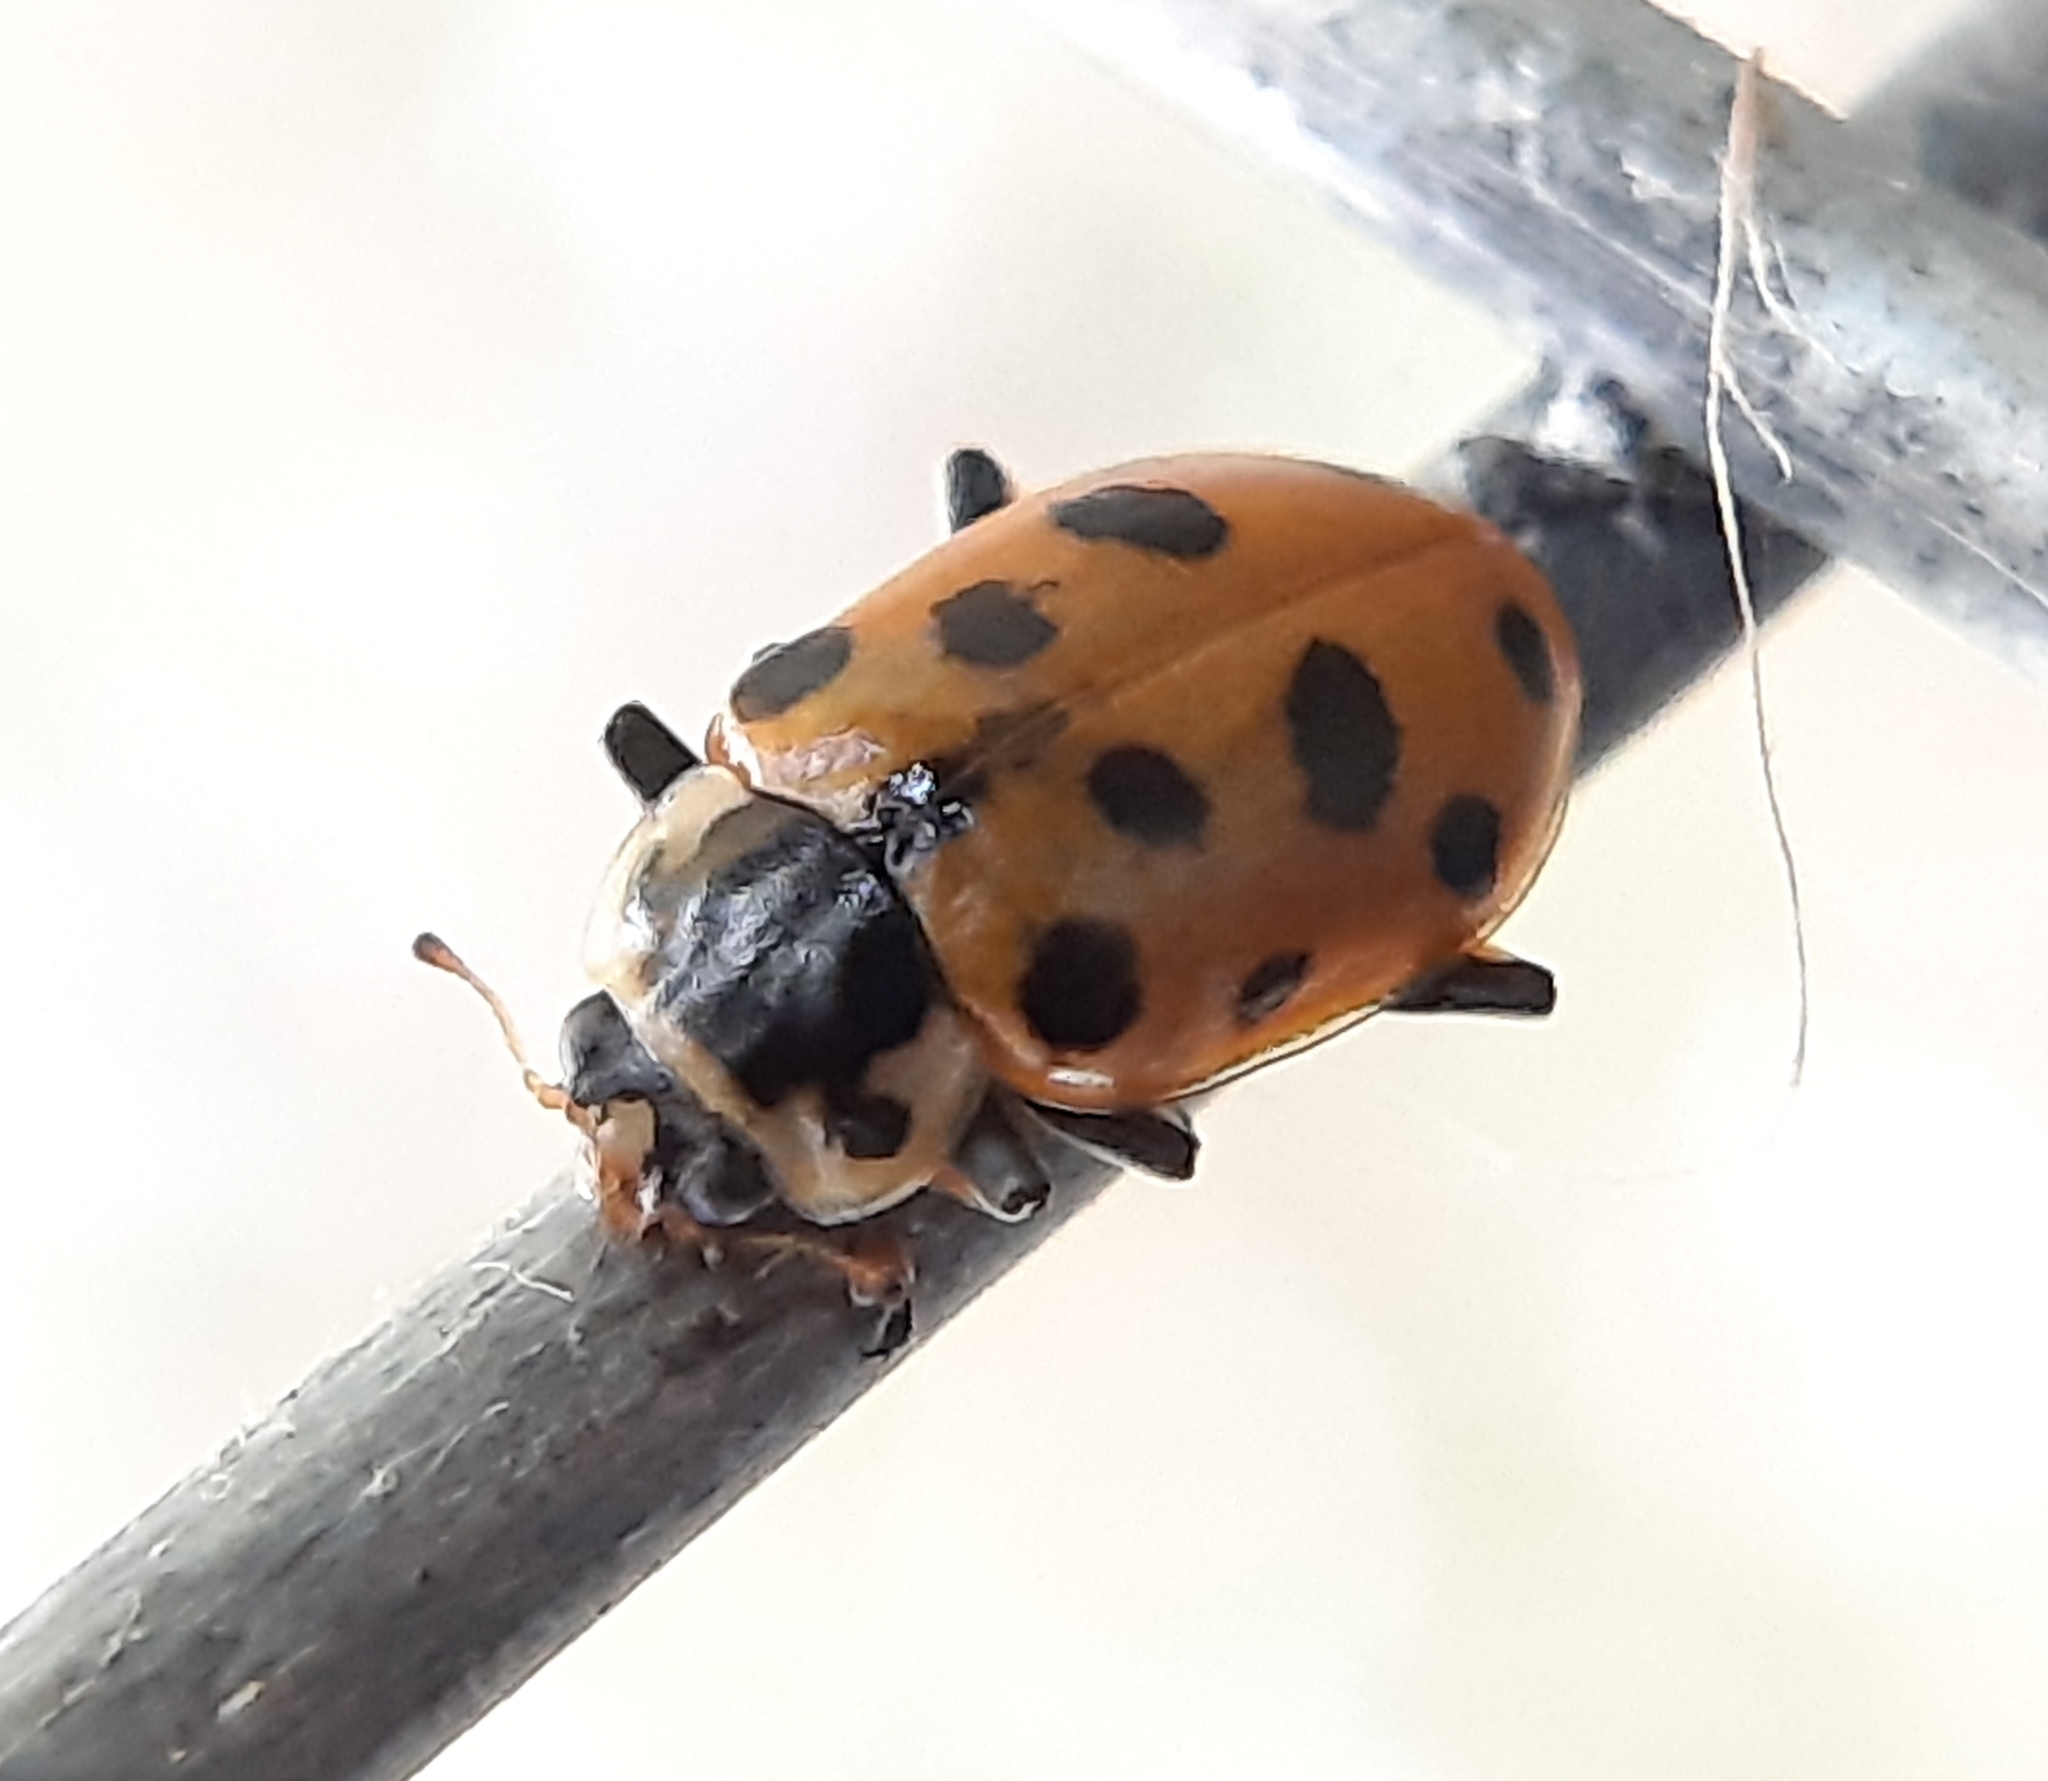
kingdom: Animalia
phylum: Arthropoda
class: Insecta
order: Coleoptera
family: Coccinellidae
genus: Hippodamia
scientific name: Hippodamia tredecimpunctata
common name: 13-spot ladybird
